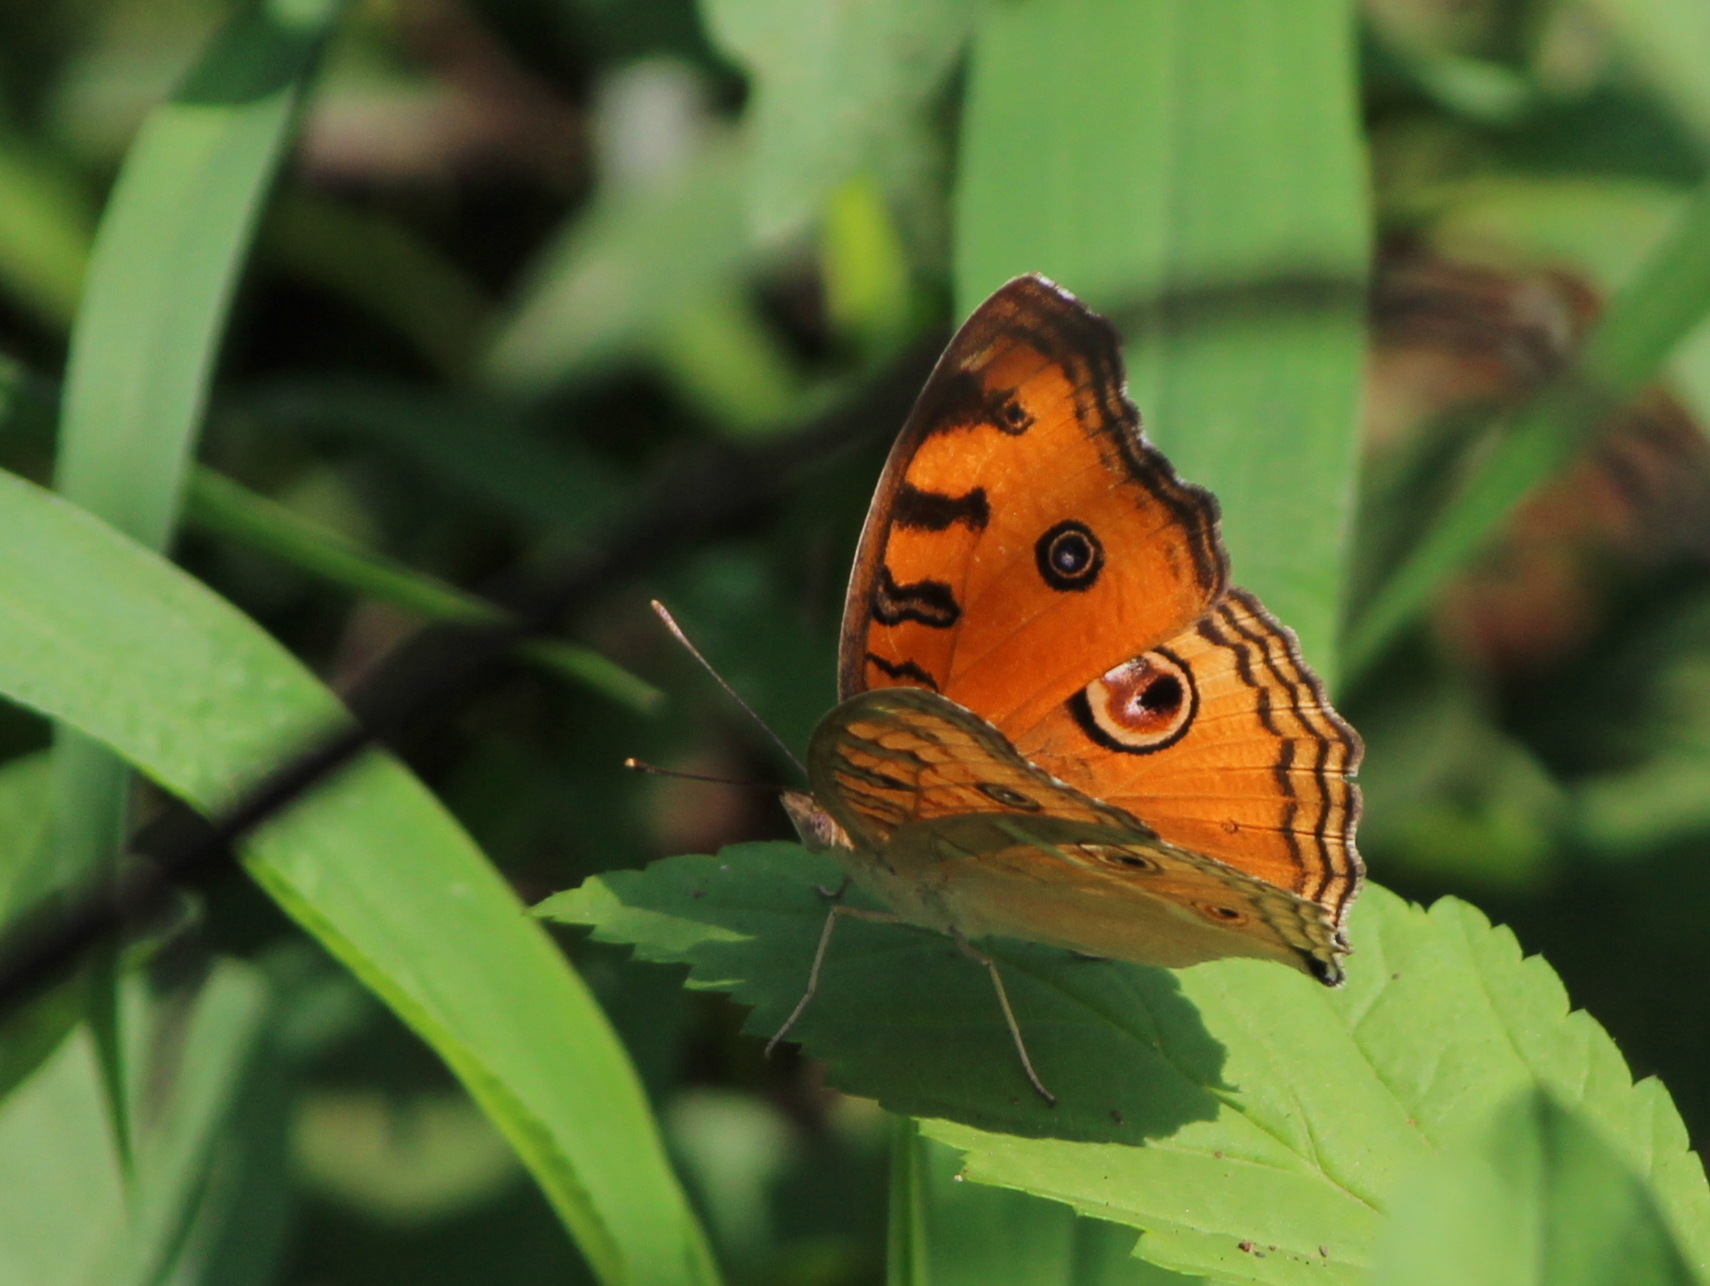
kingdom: Animalia
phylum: Arthropoda
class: Insecta
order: Lepidoptera
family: Nymphalidae
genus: Junonia
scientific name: Junonia almana
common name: Peacock pansy
